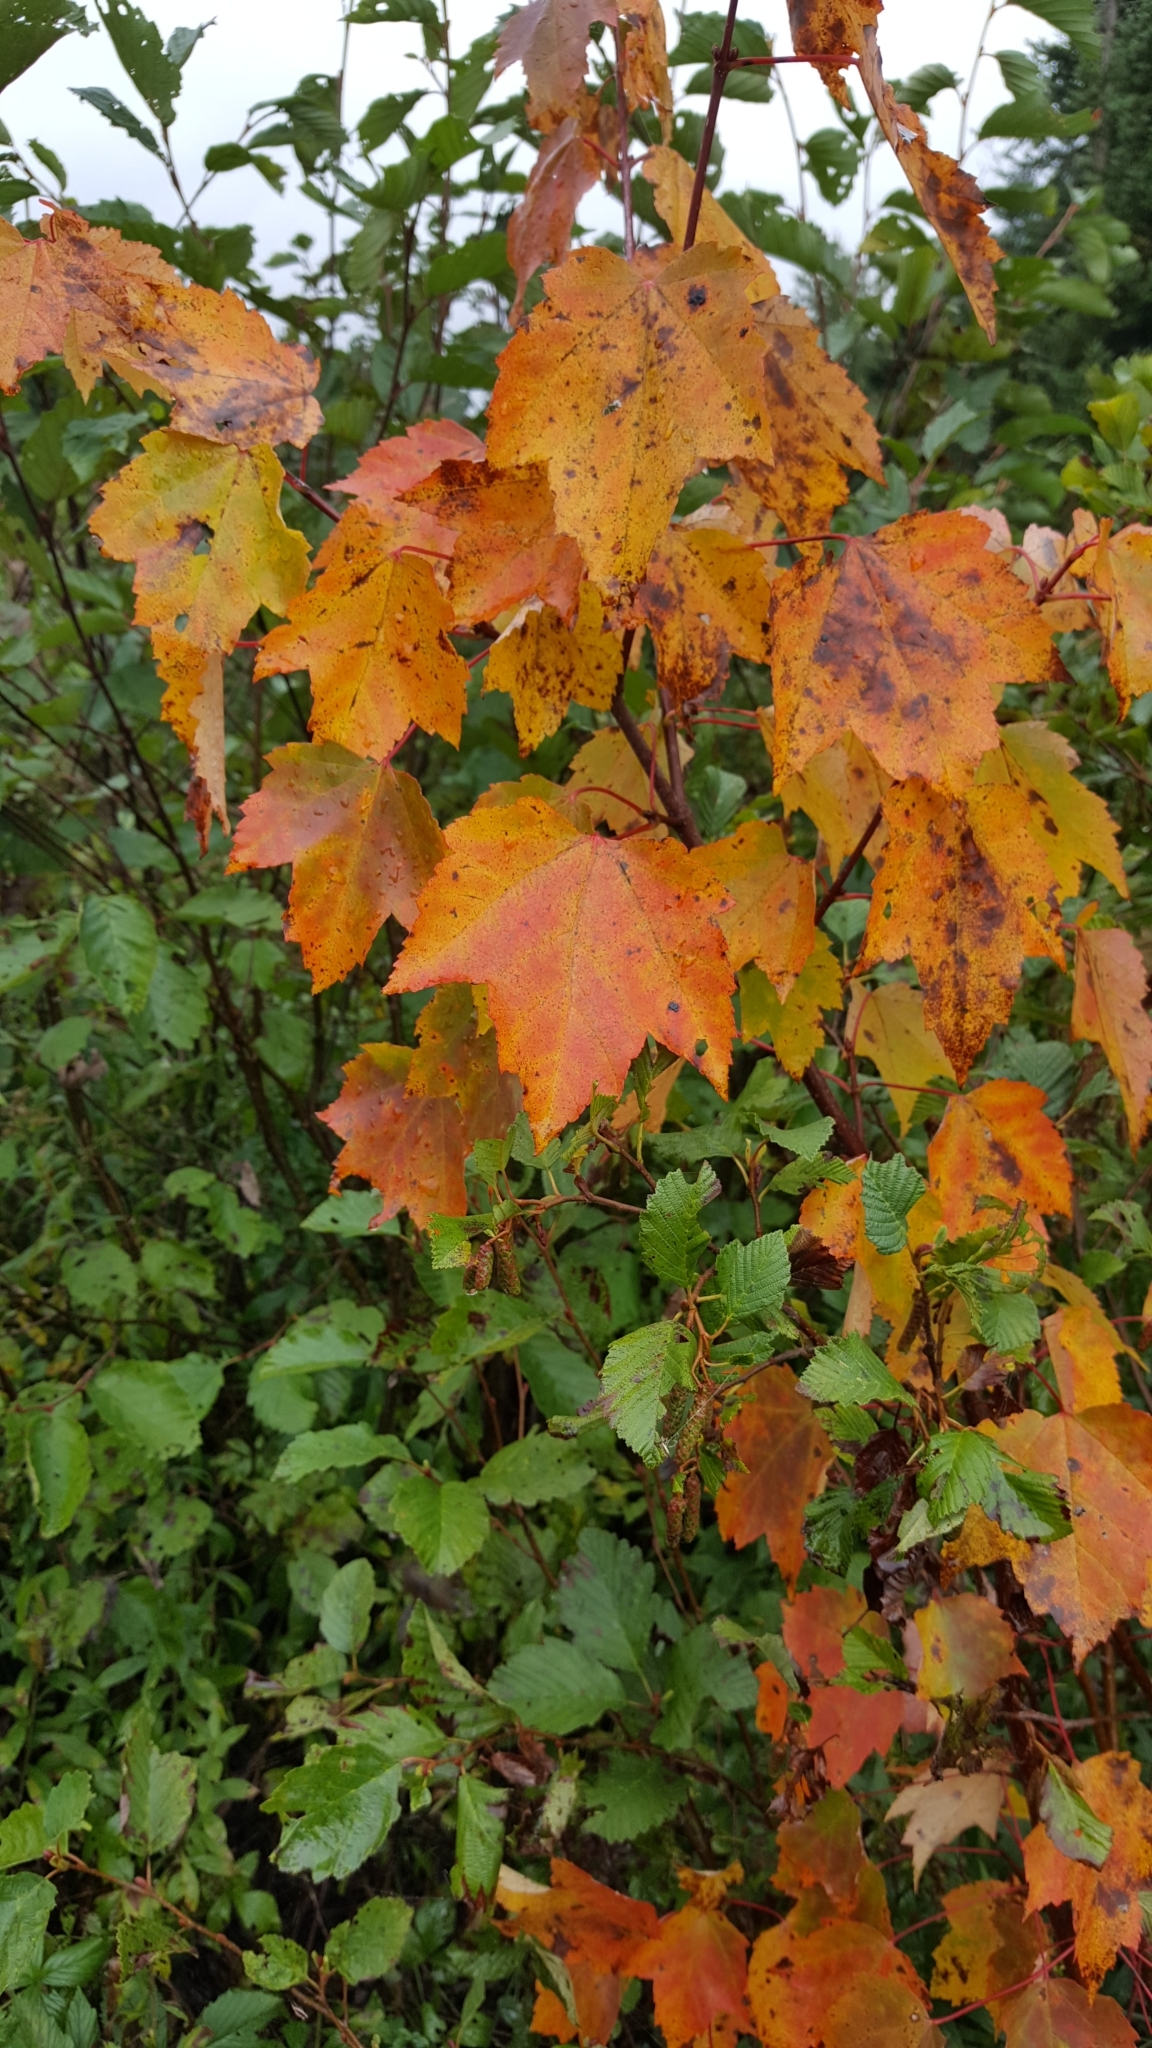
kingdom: Plantae
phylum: Tracheophyta
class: Magnoliopsida
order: Sapindales
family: Sapindaceae
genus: Acer
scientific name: Acer rubrum
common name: Red maple
